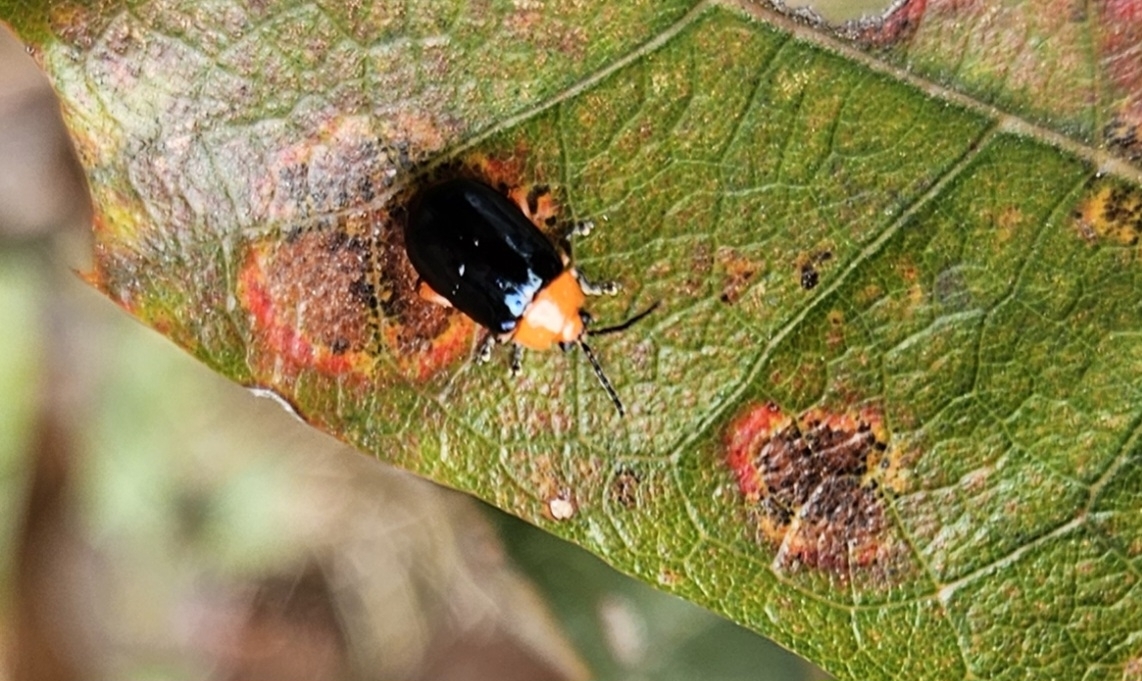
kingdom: Animalia
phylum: Arthropoda
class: Insecta
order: Coleoptera
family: Chrysomelidae
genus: Asphaera
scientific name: Asphaera lustrans
